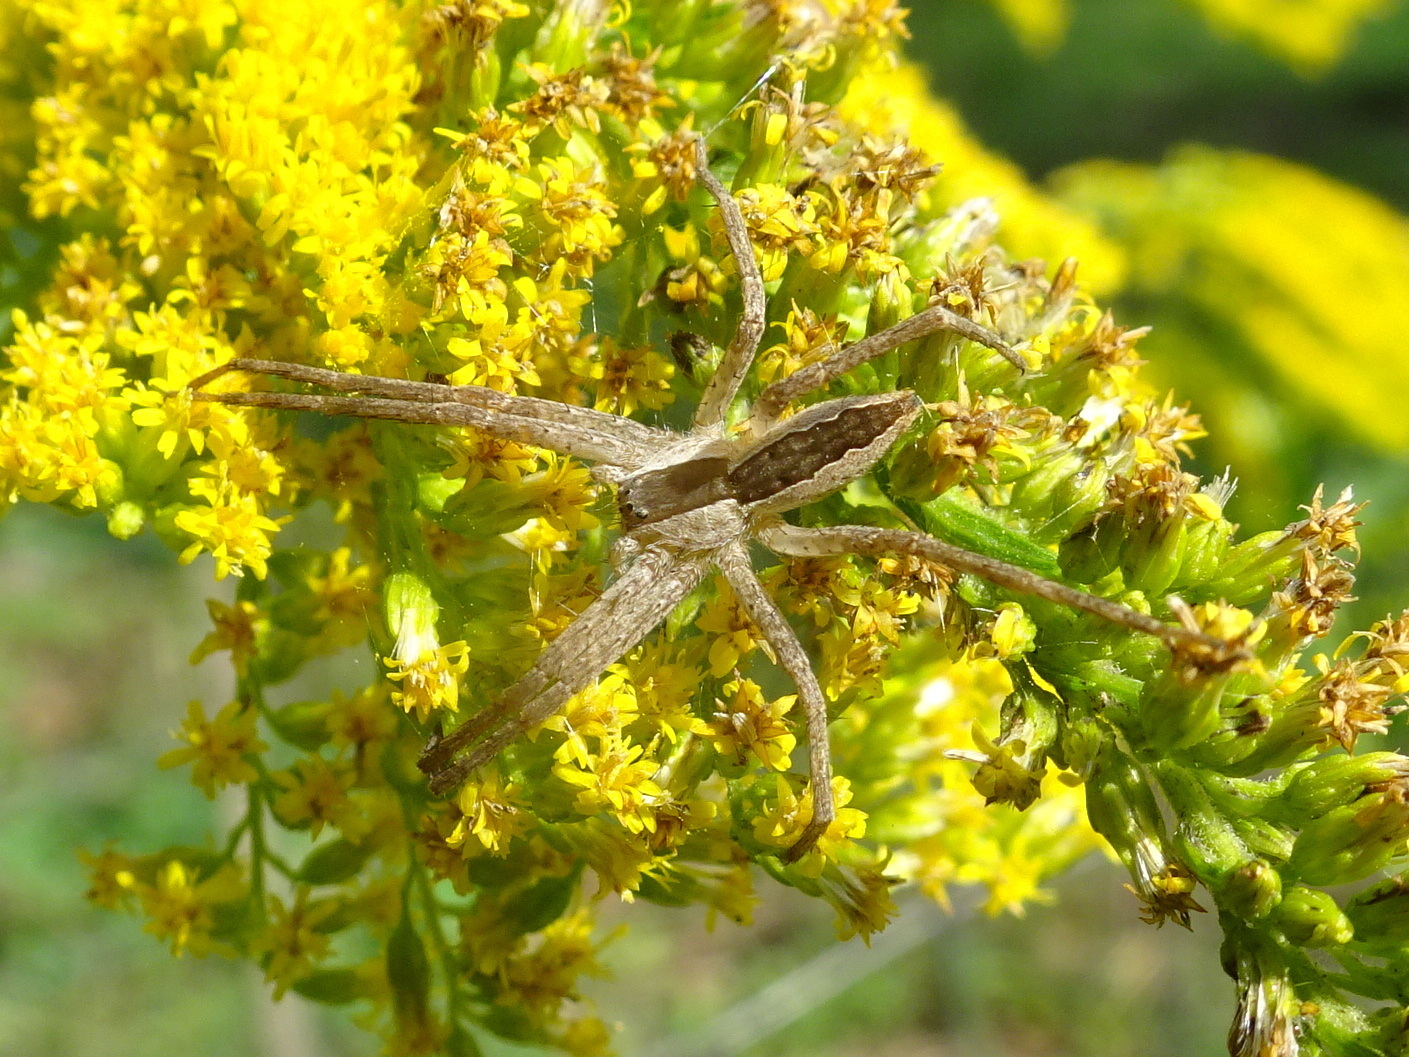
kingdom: Animalia
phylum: Arthropoda
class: Arachnida
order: Araneae
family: Pisauridae
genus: Pisaurina
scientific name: Pisaurina mira
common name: American nursery web spider
